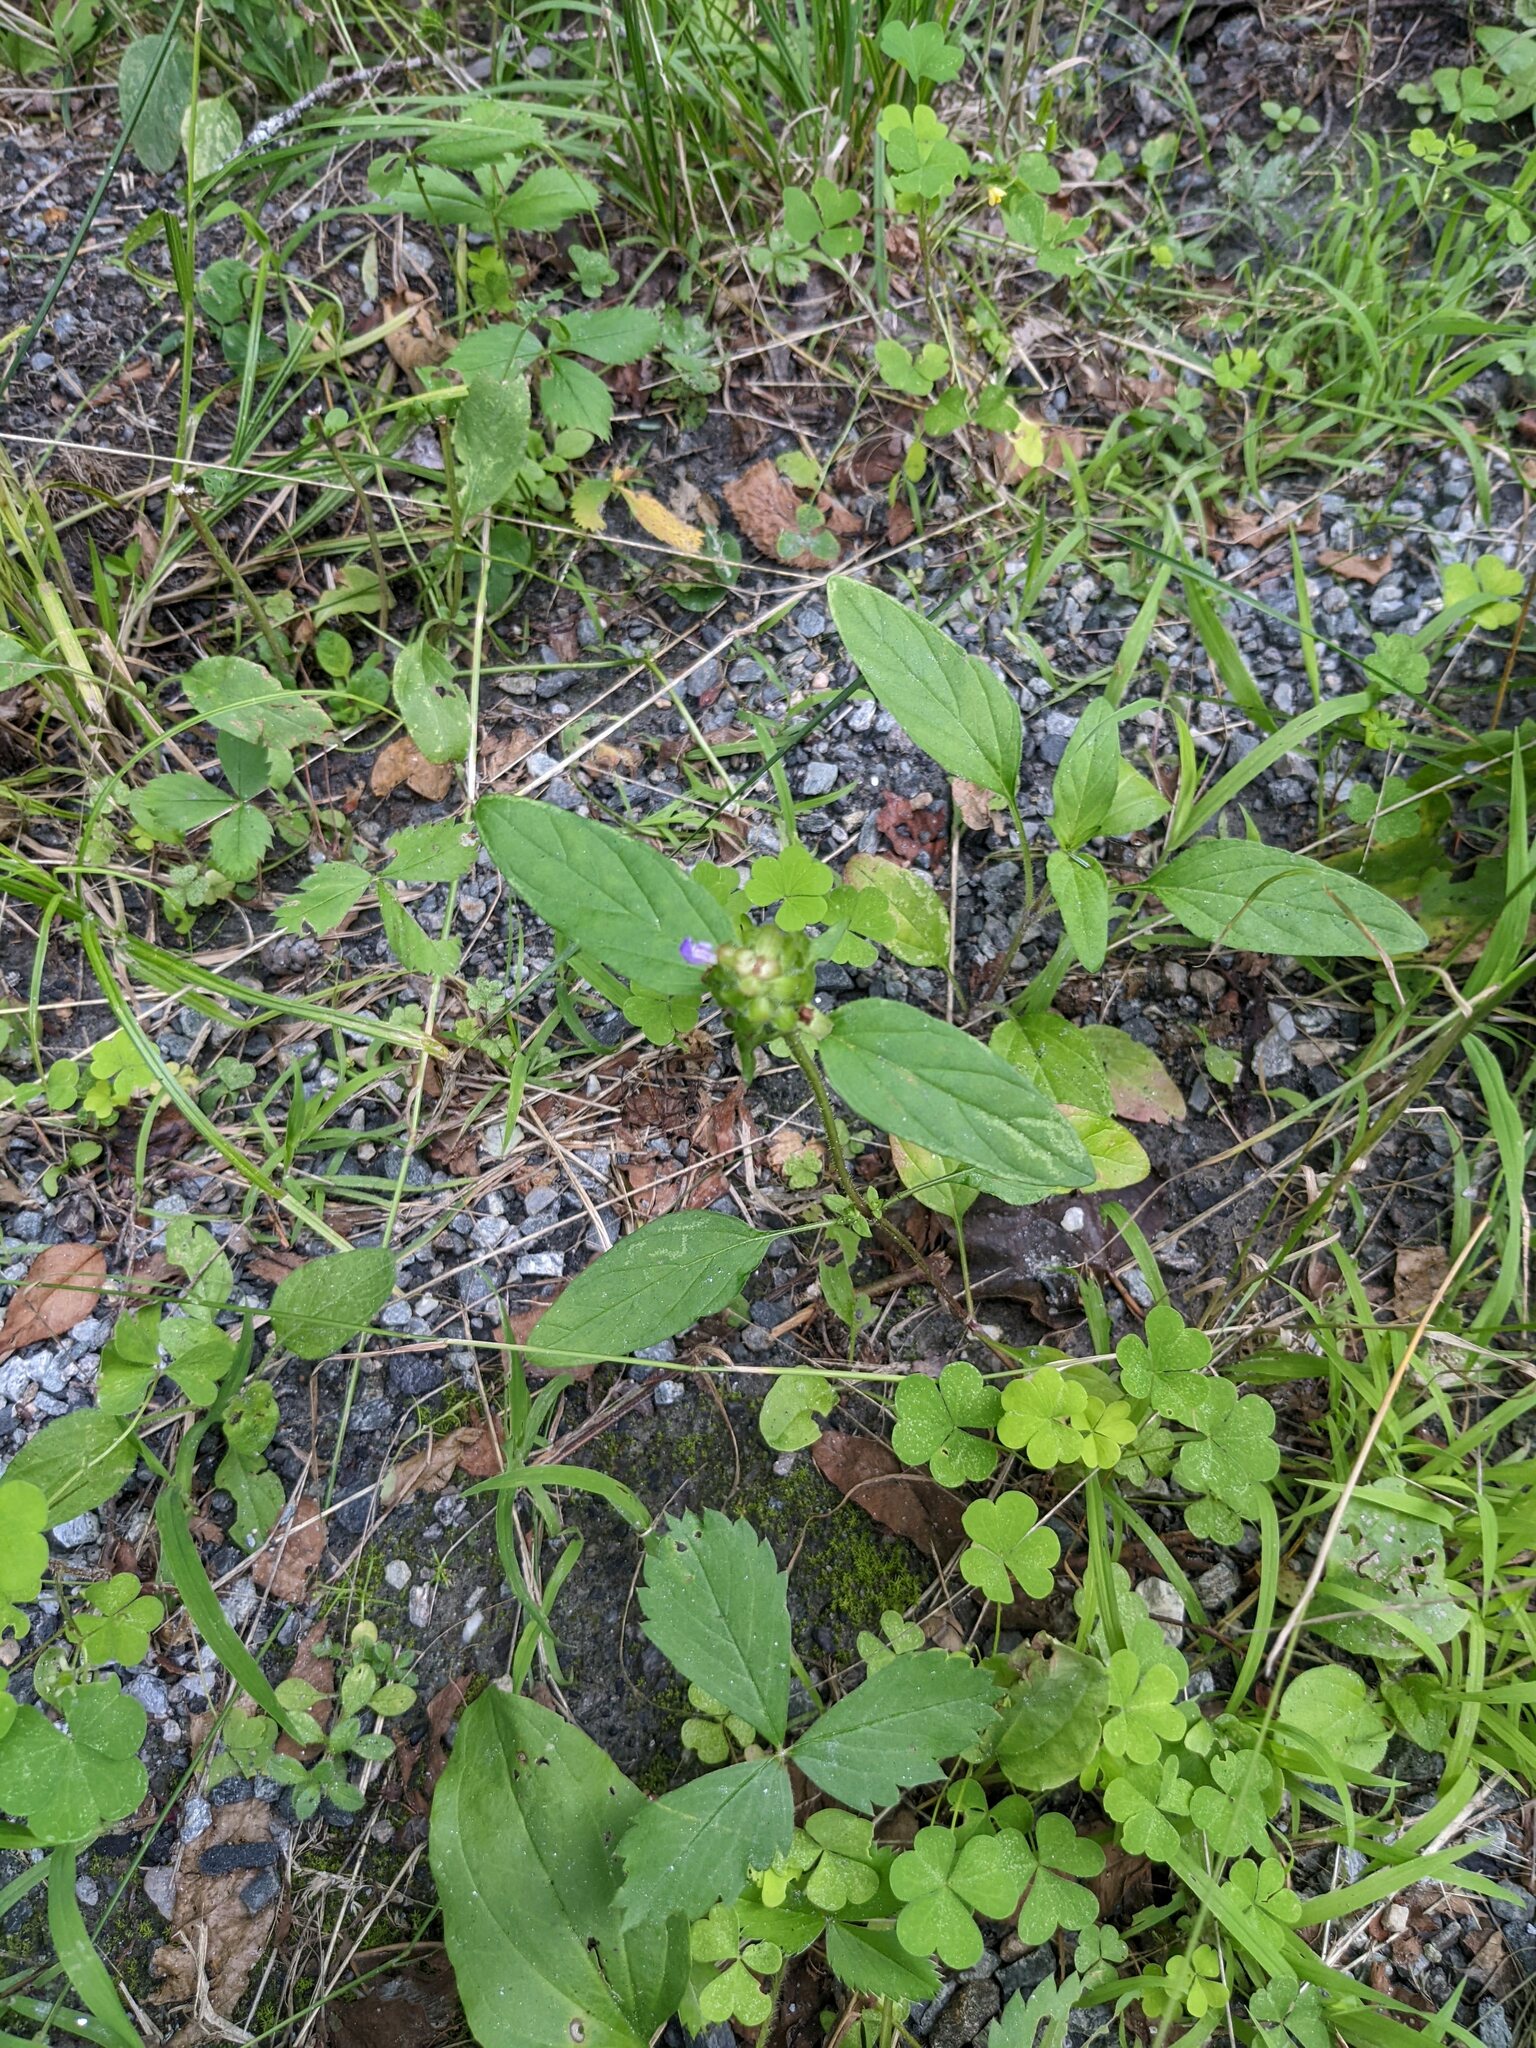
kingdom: Plantae
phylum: Tracheophyta
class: Magnoliopsida
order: Lamiales
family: Lamiaceae
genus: Prunella
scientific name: Prunella vulgaris
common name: Heal-all
